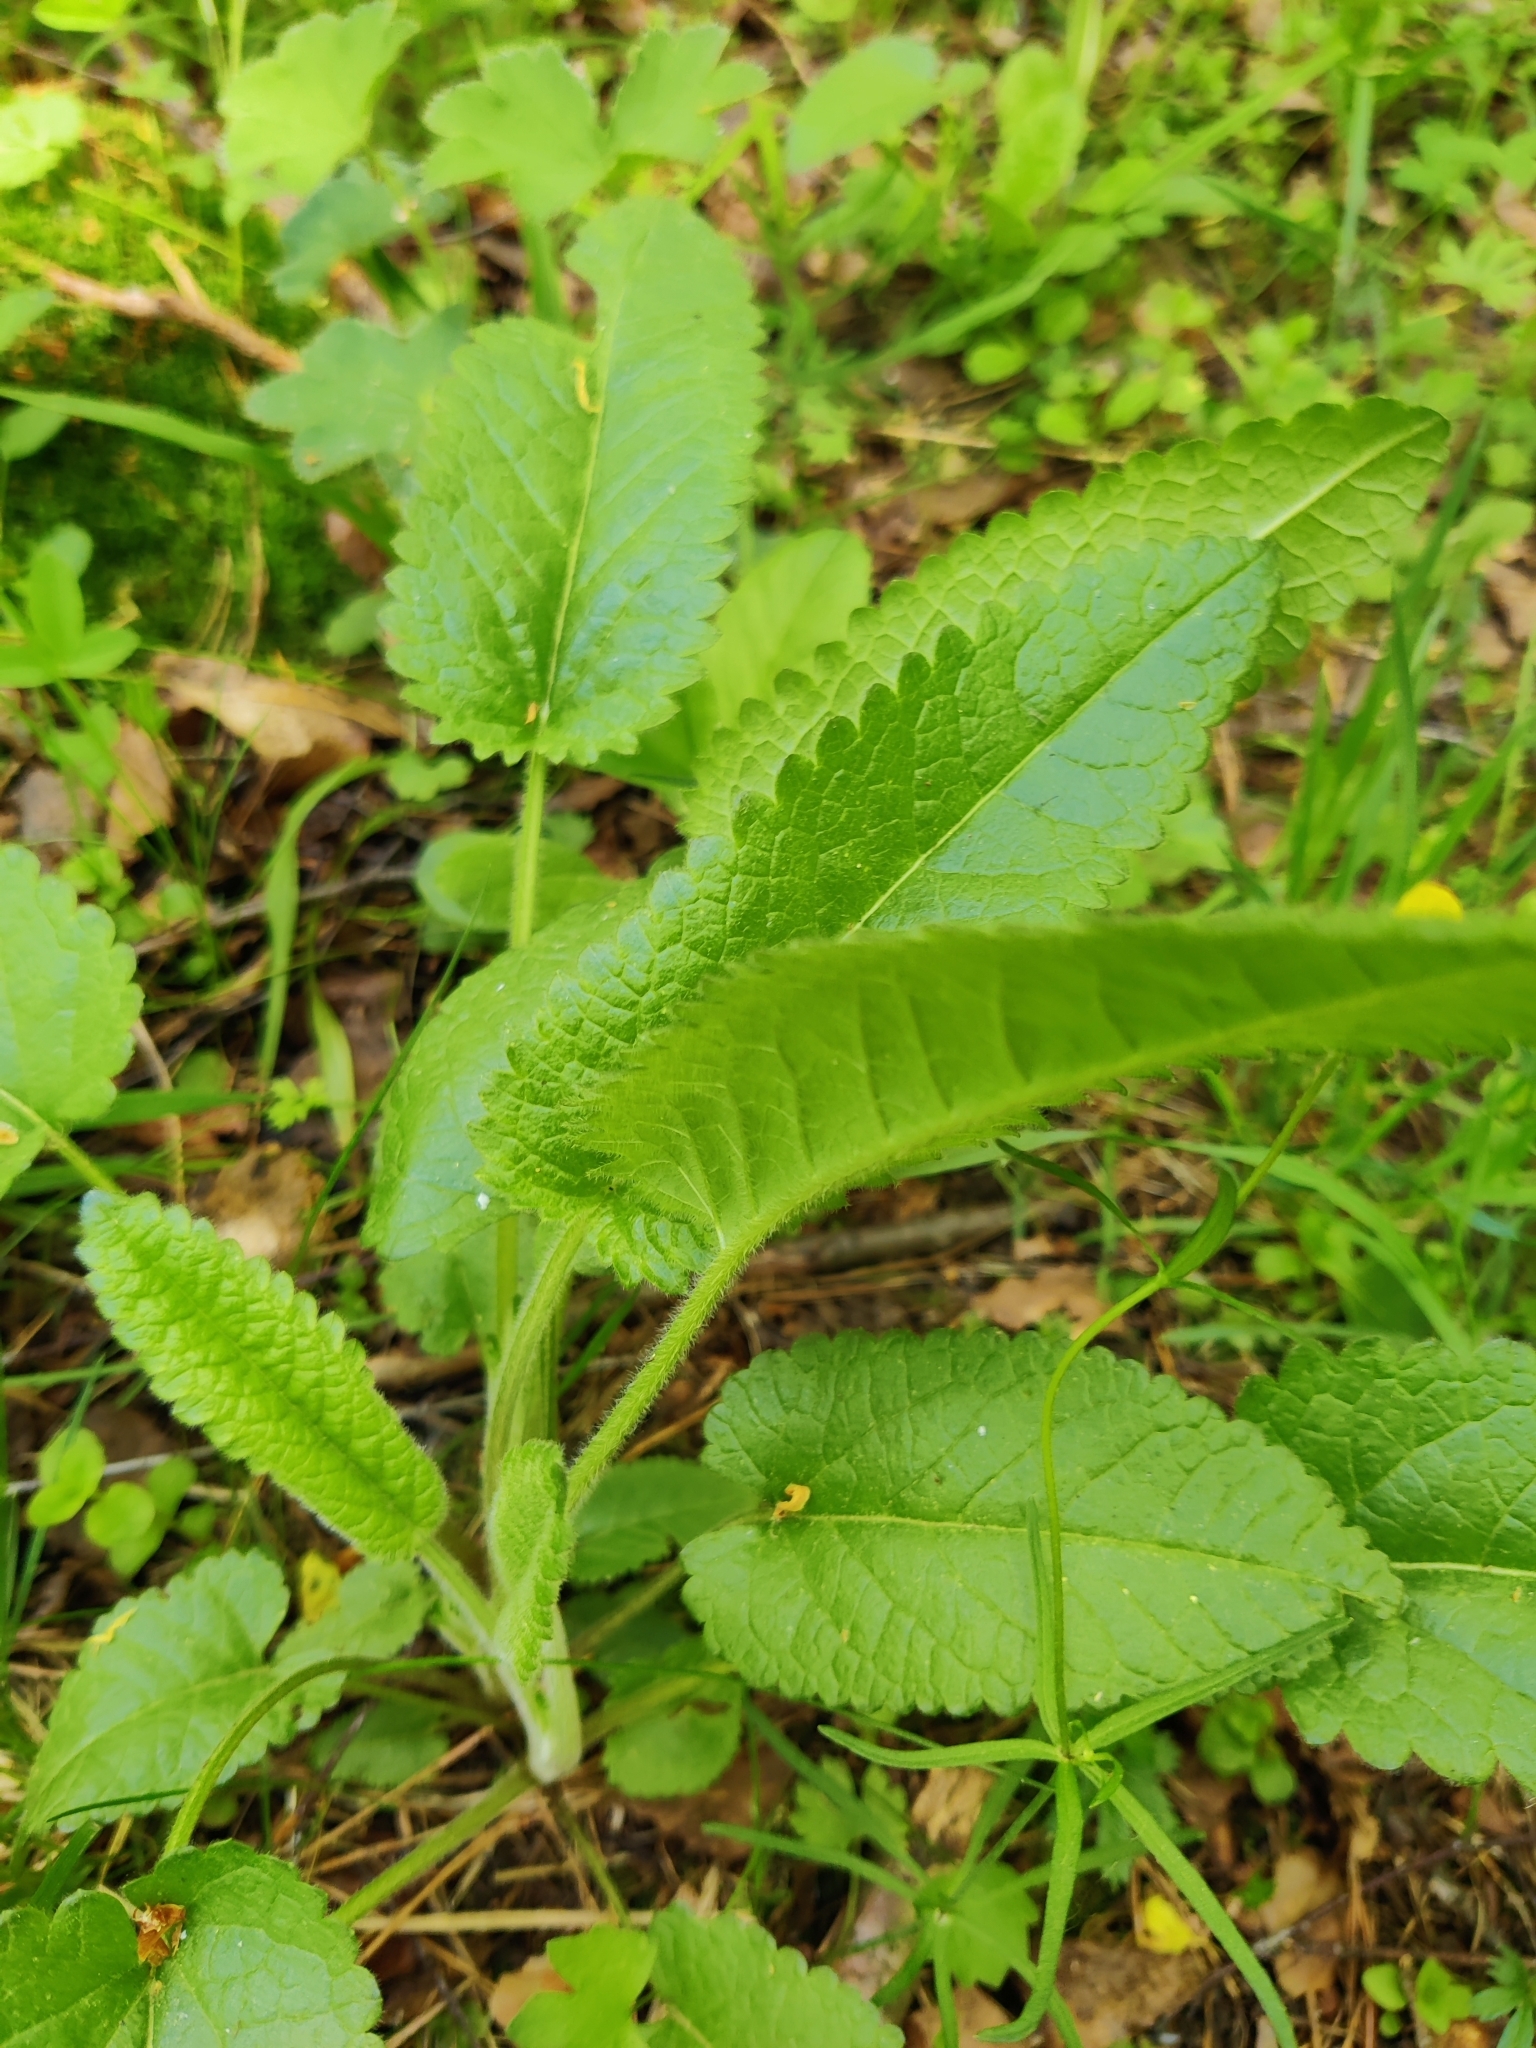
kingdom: Plantae
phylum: Tracheophyta
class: Magnoliopsida
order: Lamiales
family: Lamiaceae
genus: Betonica
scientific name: Betonica officinalis
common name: Bishop's-wort
